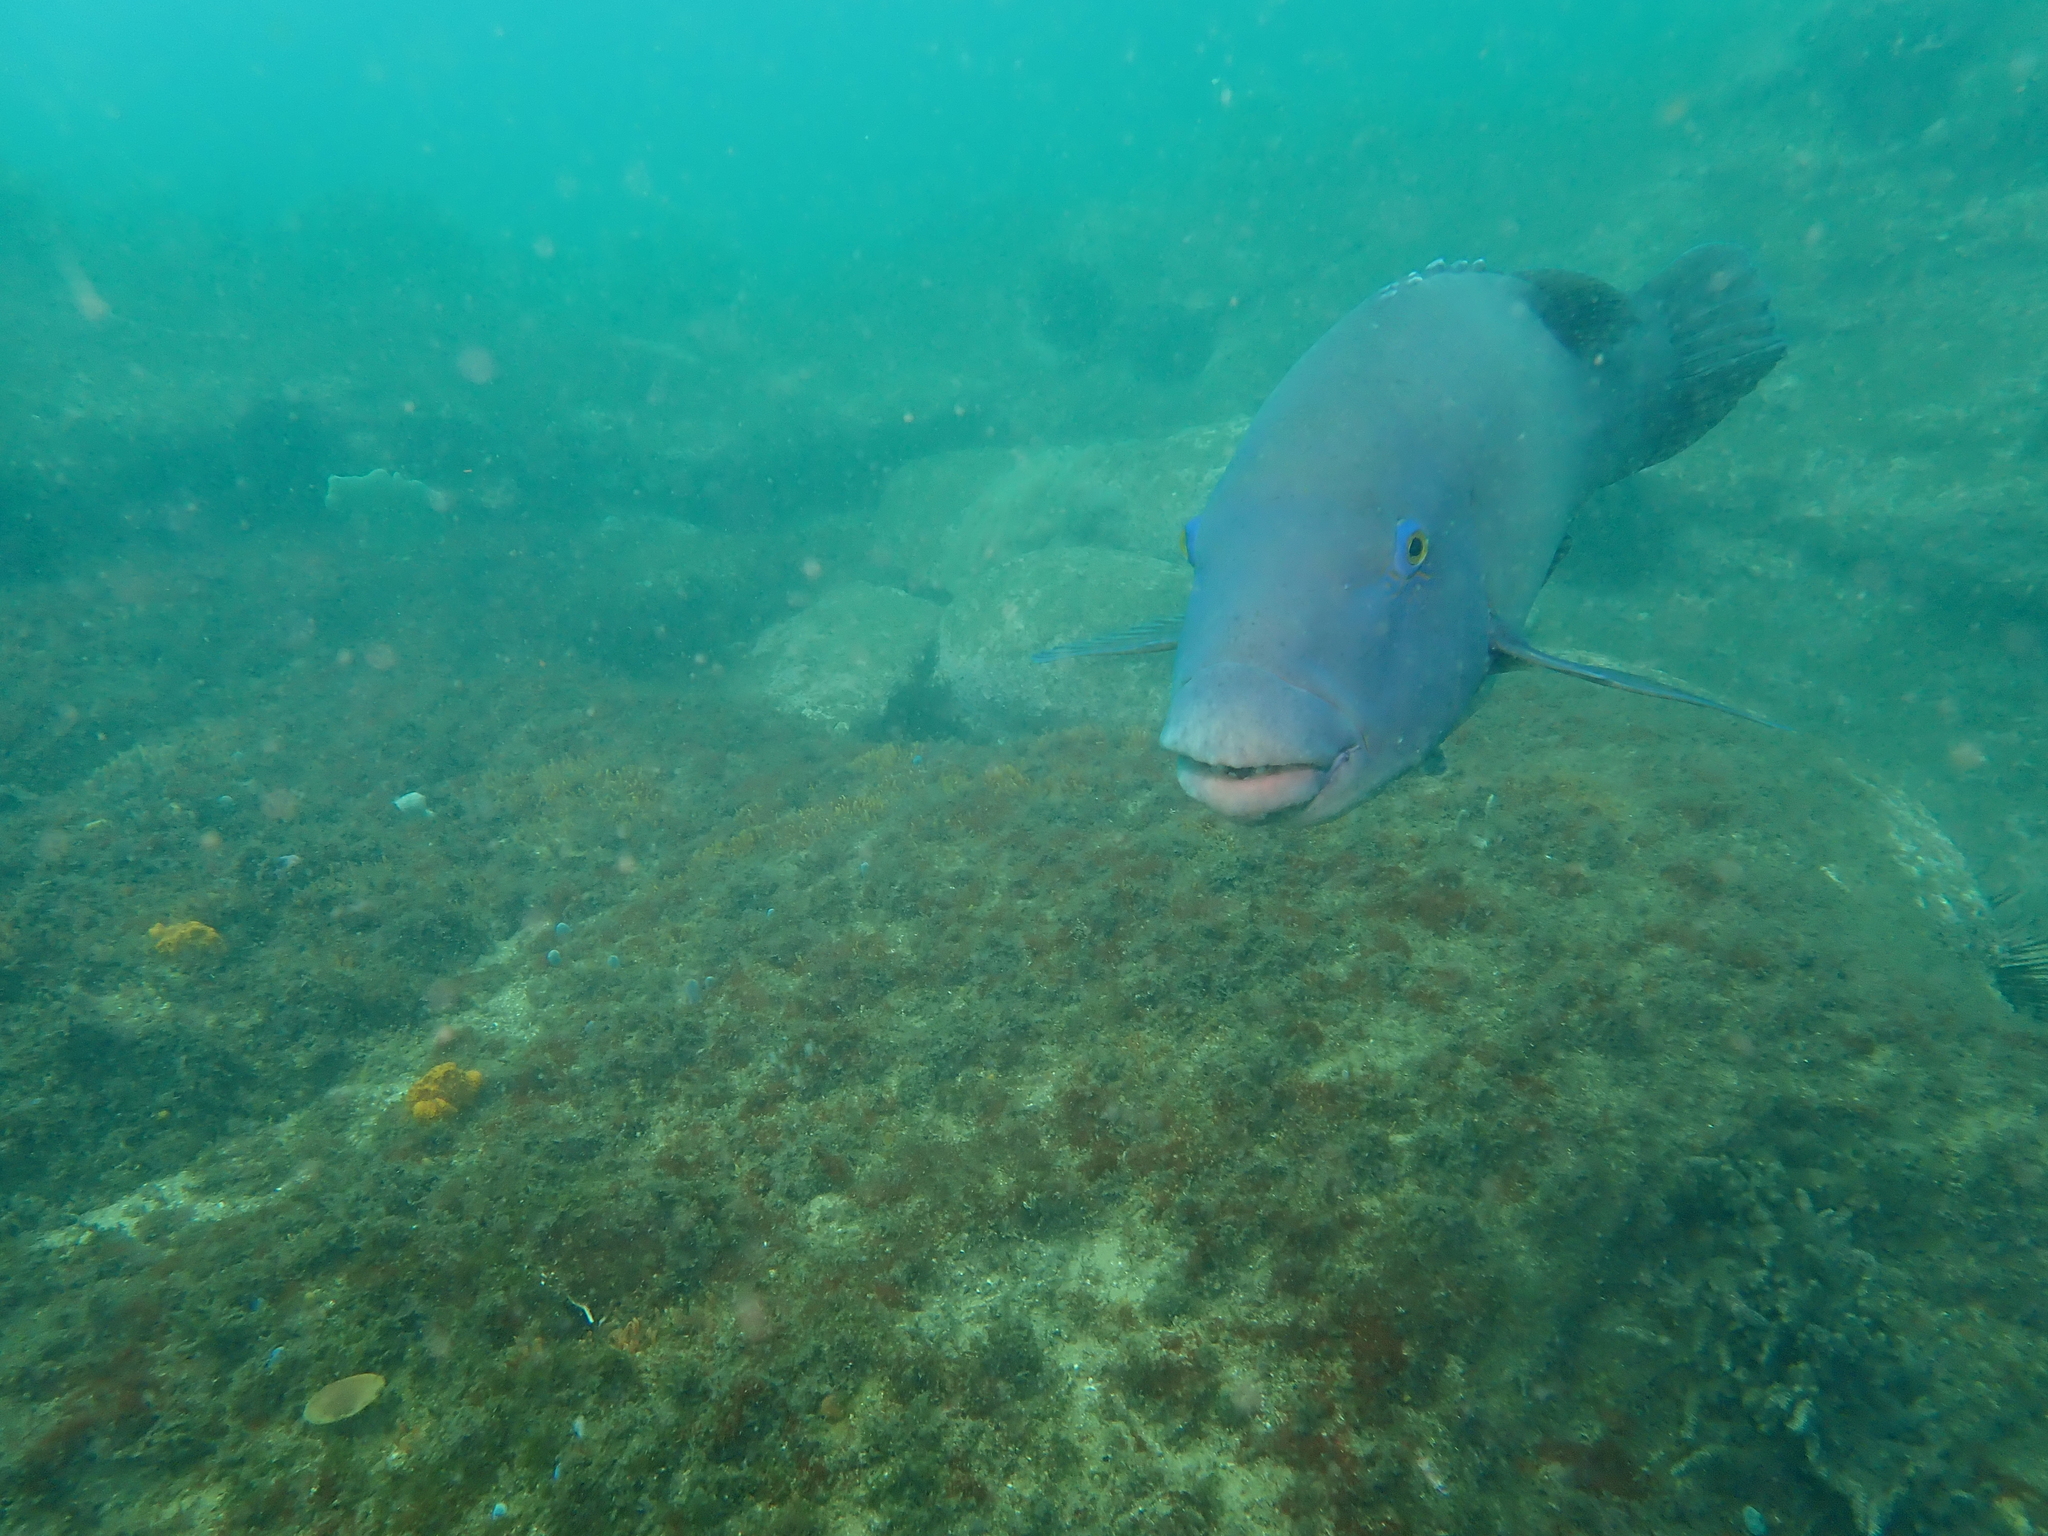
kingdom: Animalia
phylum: Chordata
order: Perciformes
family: Labridae
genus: Achoerodus
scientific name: Achoerodus viridis
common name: Brown groper
